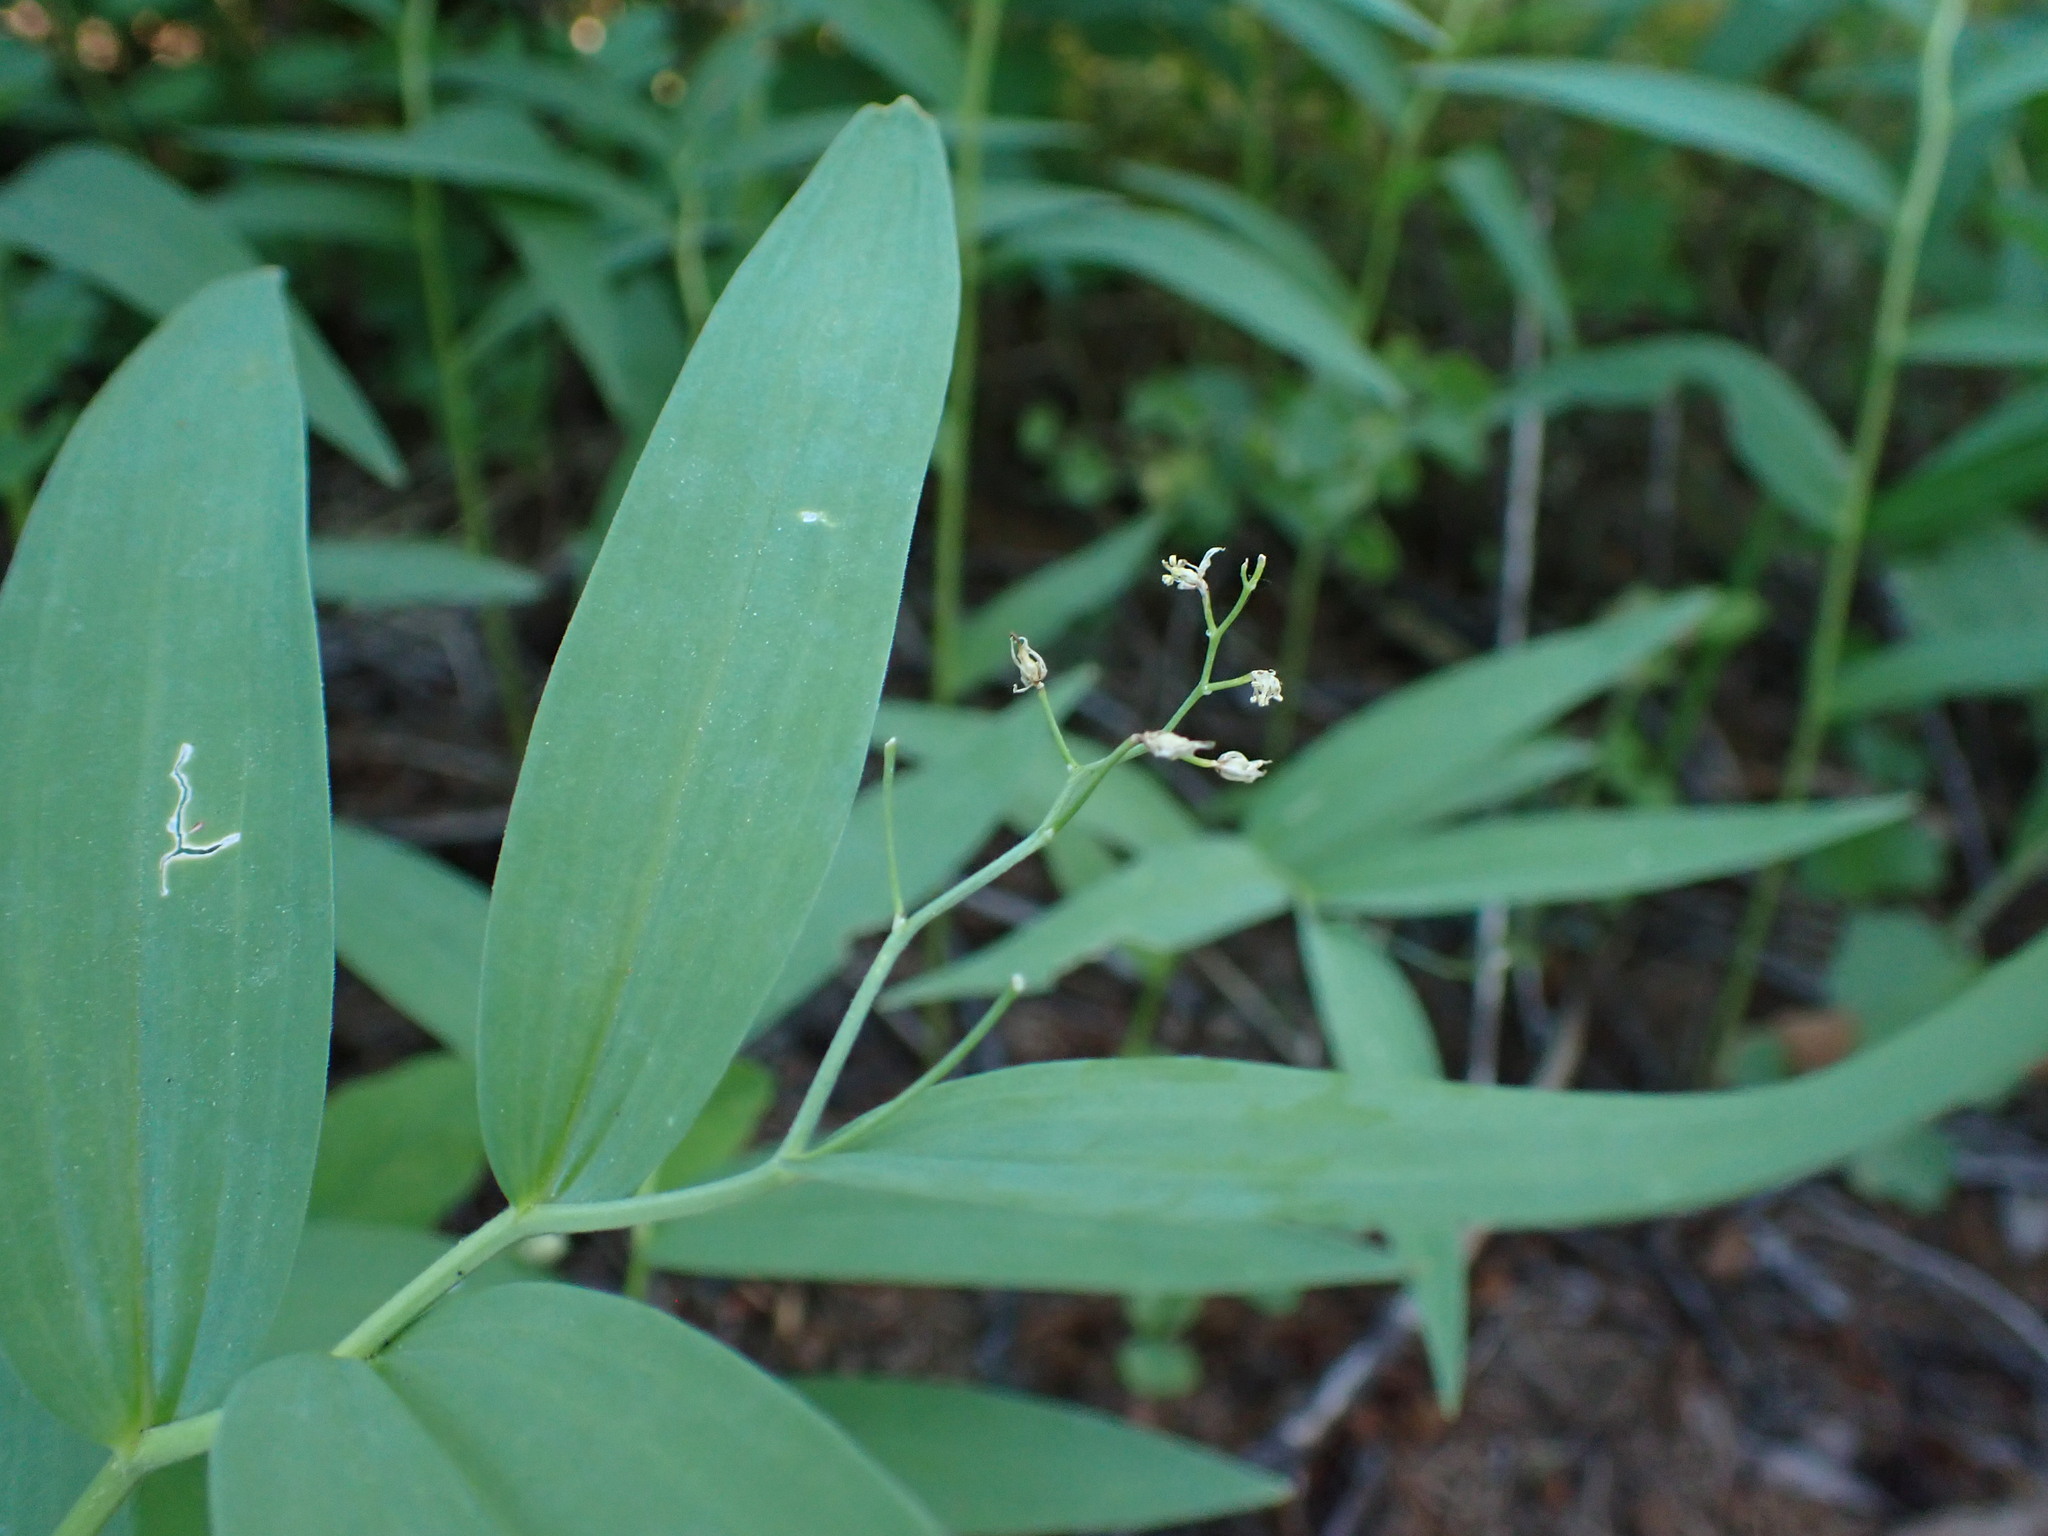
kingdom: Plantae
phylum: Tracheophyta
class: Liliopsida
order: Asparagales
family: Asparagaceae
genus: Maianthemum
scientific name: Maianthemum stellatum
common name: Little false solomon's seal
